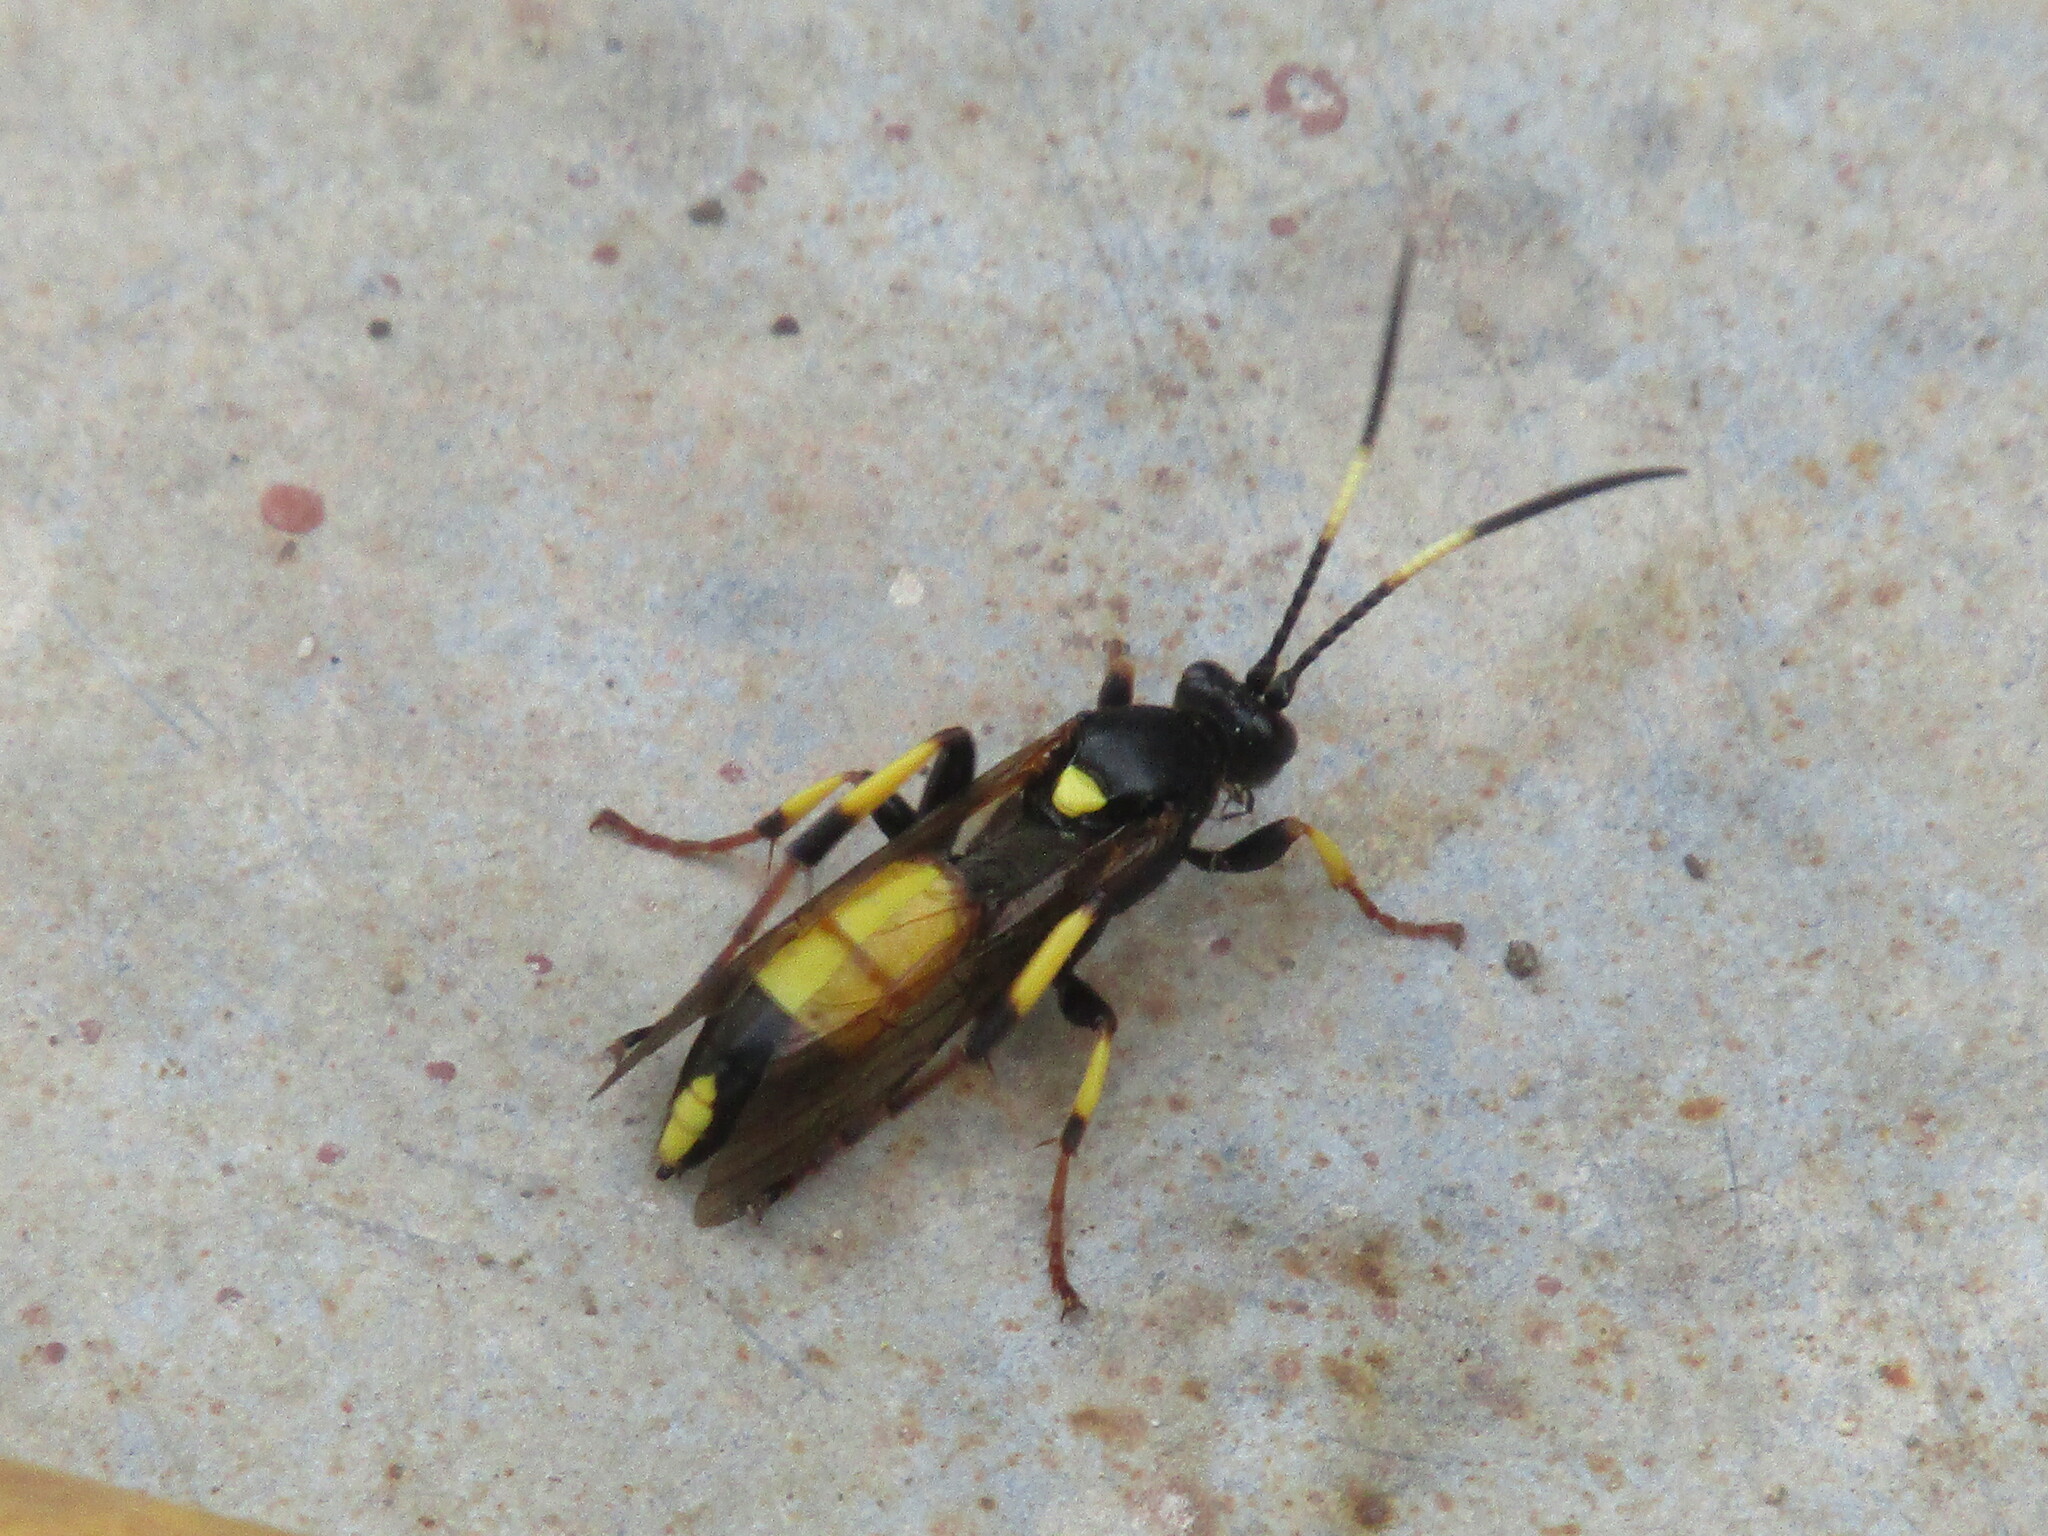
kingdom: Animalia
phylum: Arthropoda
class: Insecta
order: Hymenoptera
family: Ichneumonidae
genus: Ichneumon
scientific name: Ichneumon stramentor
